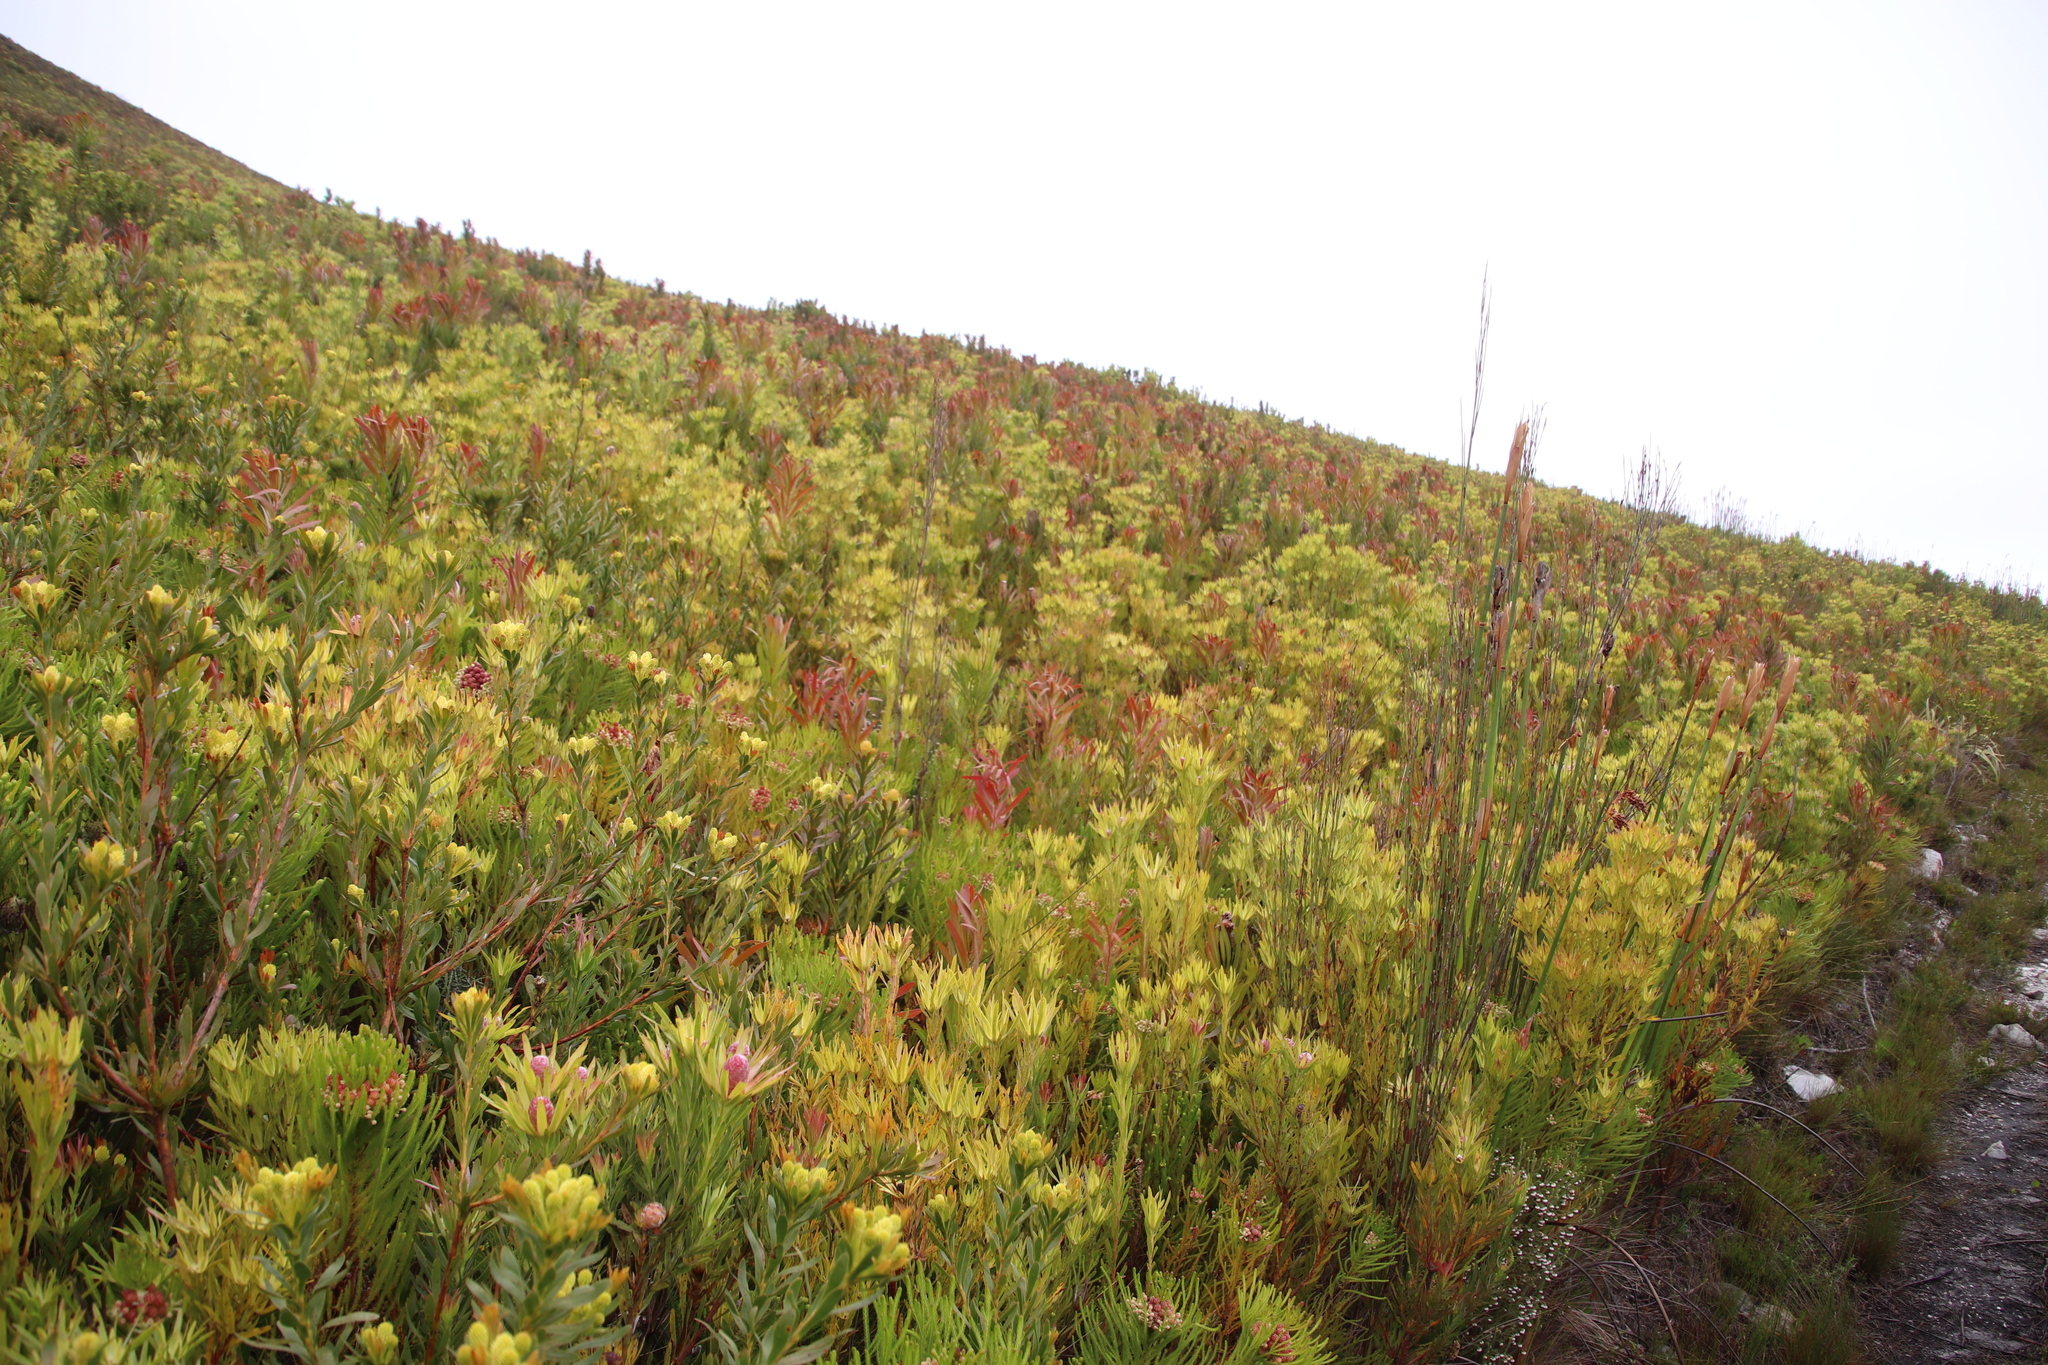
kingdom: Plantae
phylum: Tracheophyta
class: Magnoliopsida
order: Proteales
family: Proteaceae
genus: Protea
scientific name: Protea lepidocarpodendron
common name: Black-bearded protea
